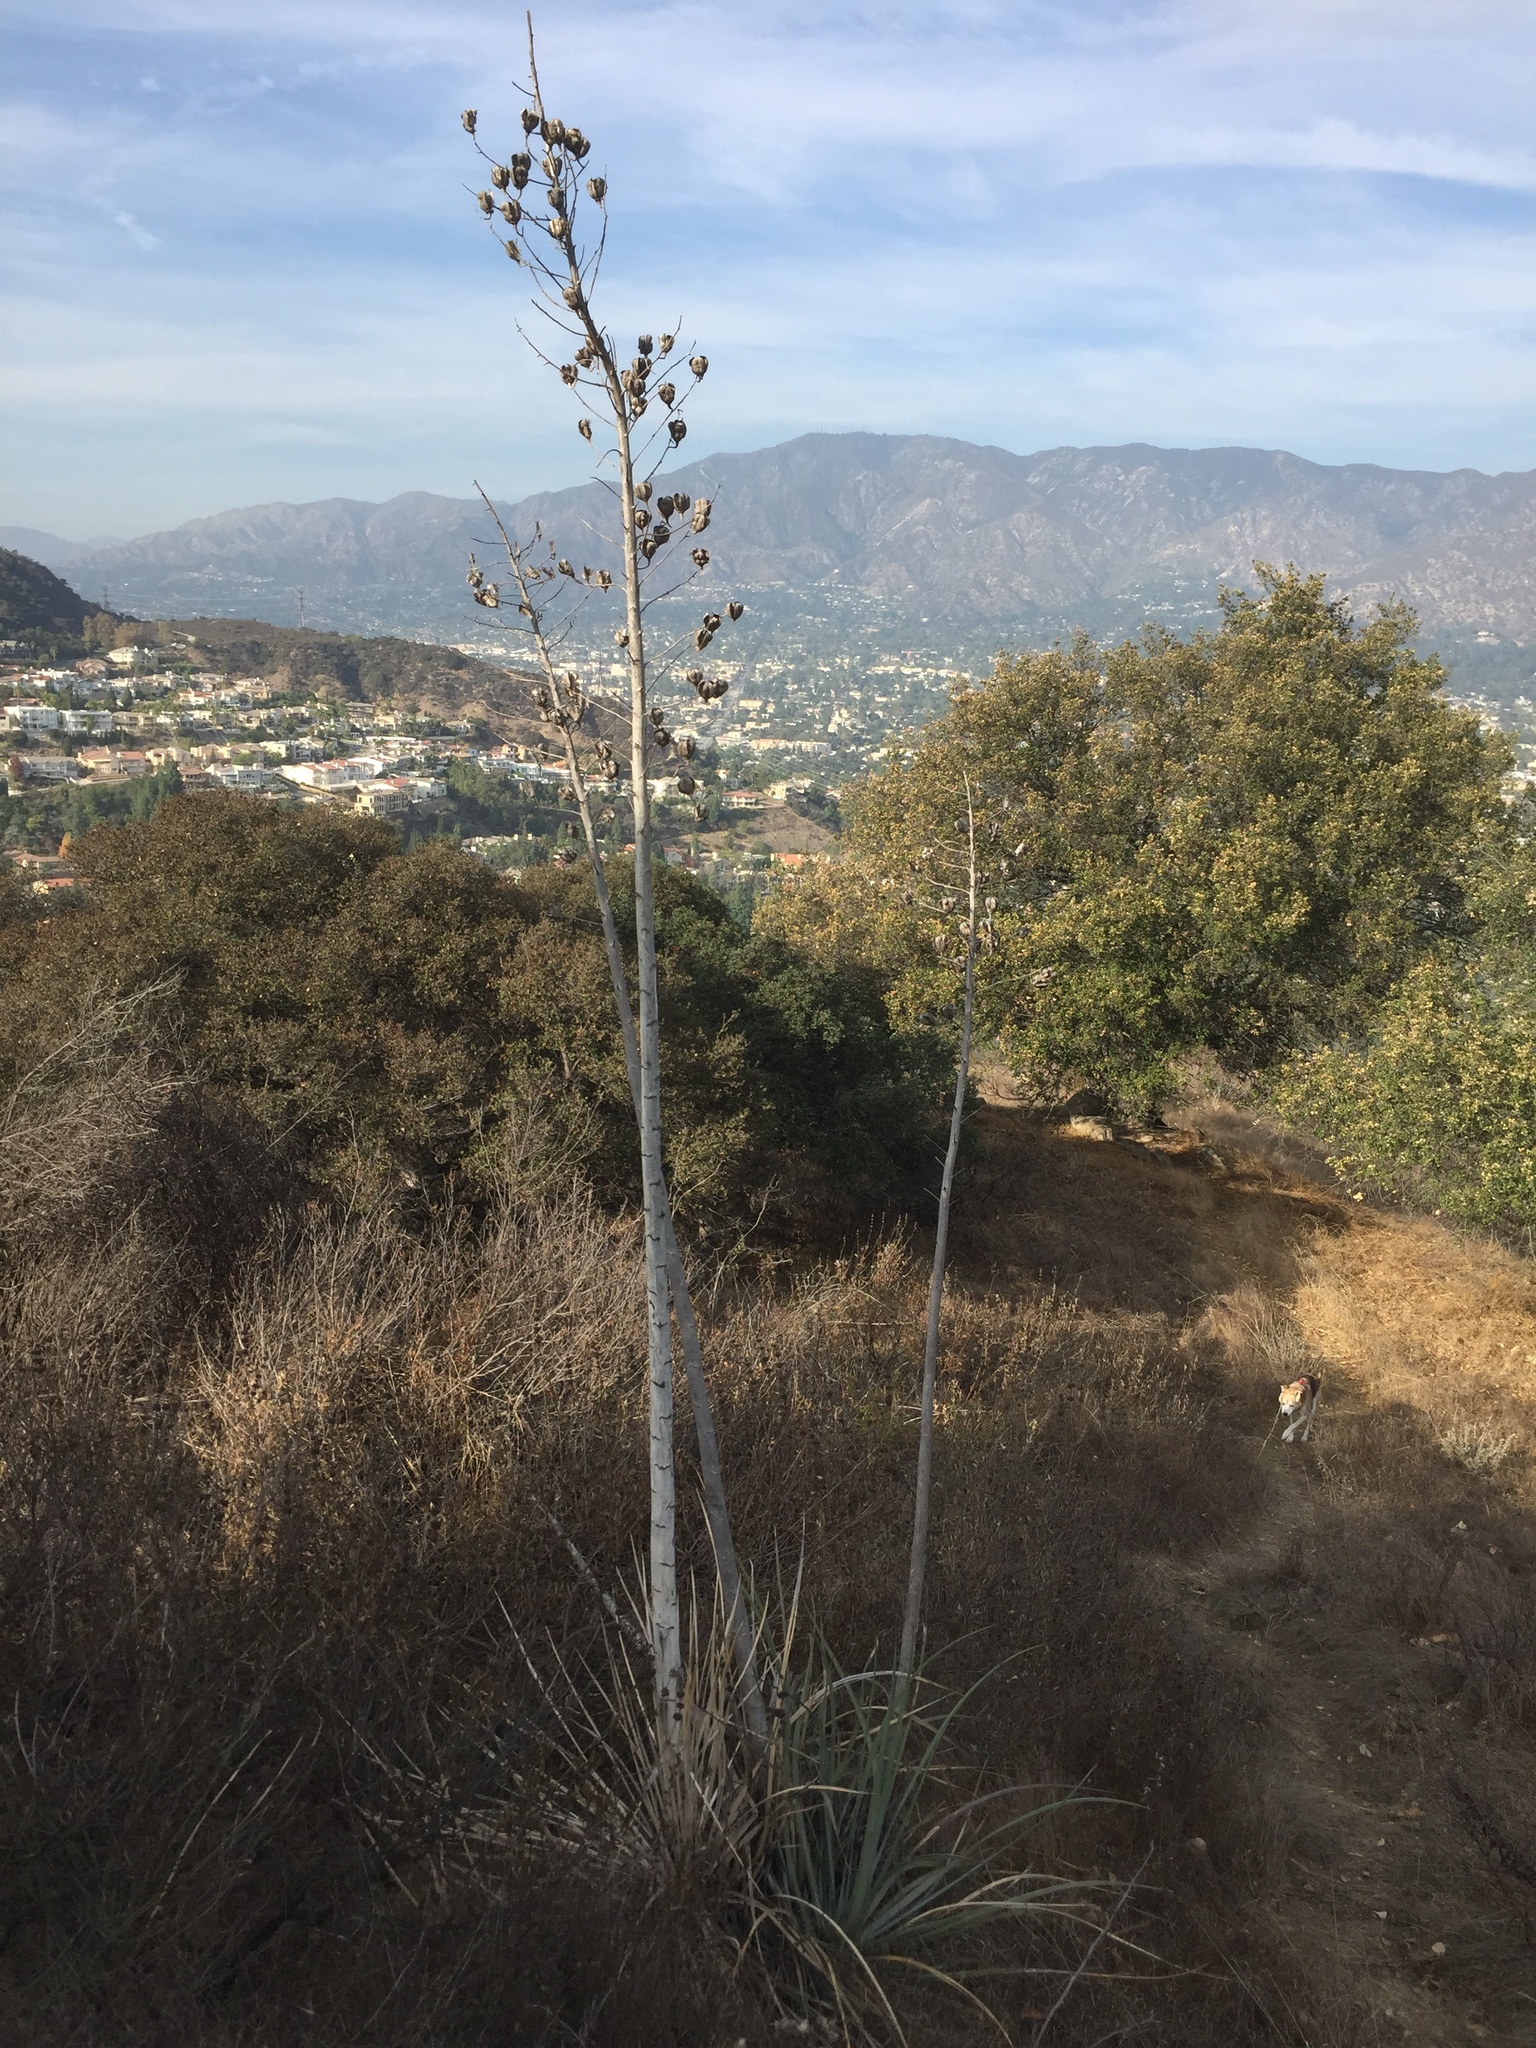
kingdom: Plantae
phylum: Tracheophyta
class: Liliopsida
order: Asparagales
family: Asparagaceae
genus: Hesperoyucca
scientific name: Hesperoyucca whipplei
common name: Our lord's-candle
